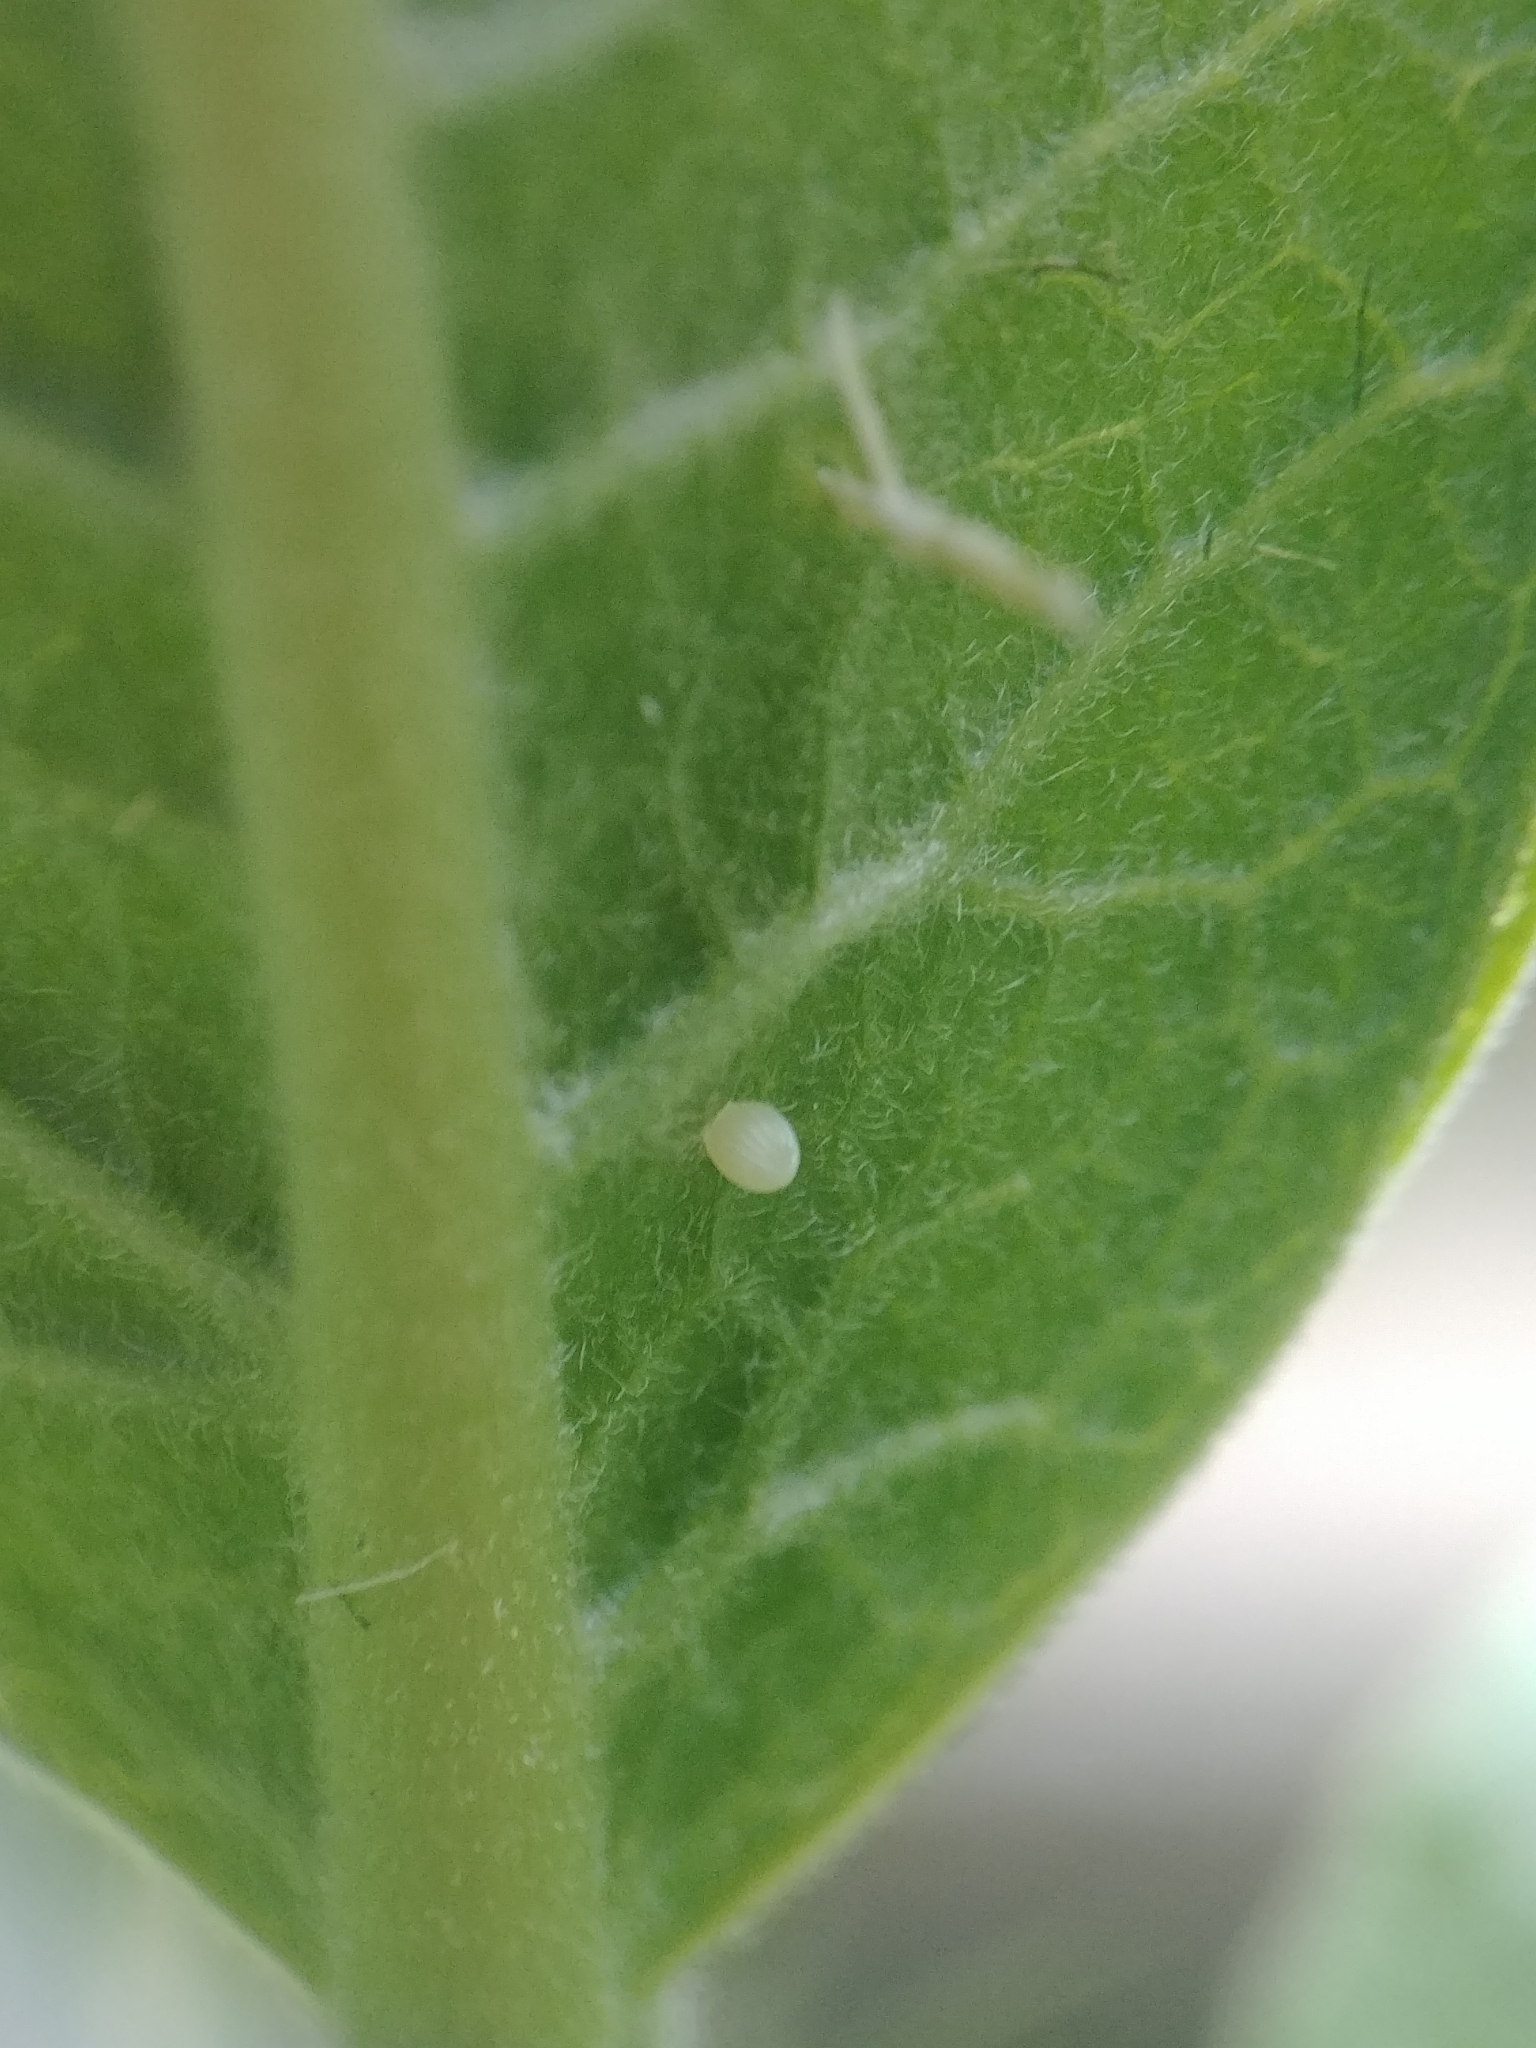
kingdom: Animalia
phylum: Arthropoda
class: Insecta
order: Lepidoptera
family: Nymphalidae
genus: Danaus
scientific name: Danaus plexippus
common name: Monarch
